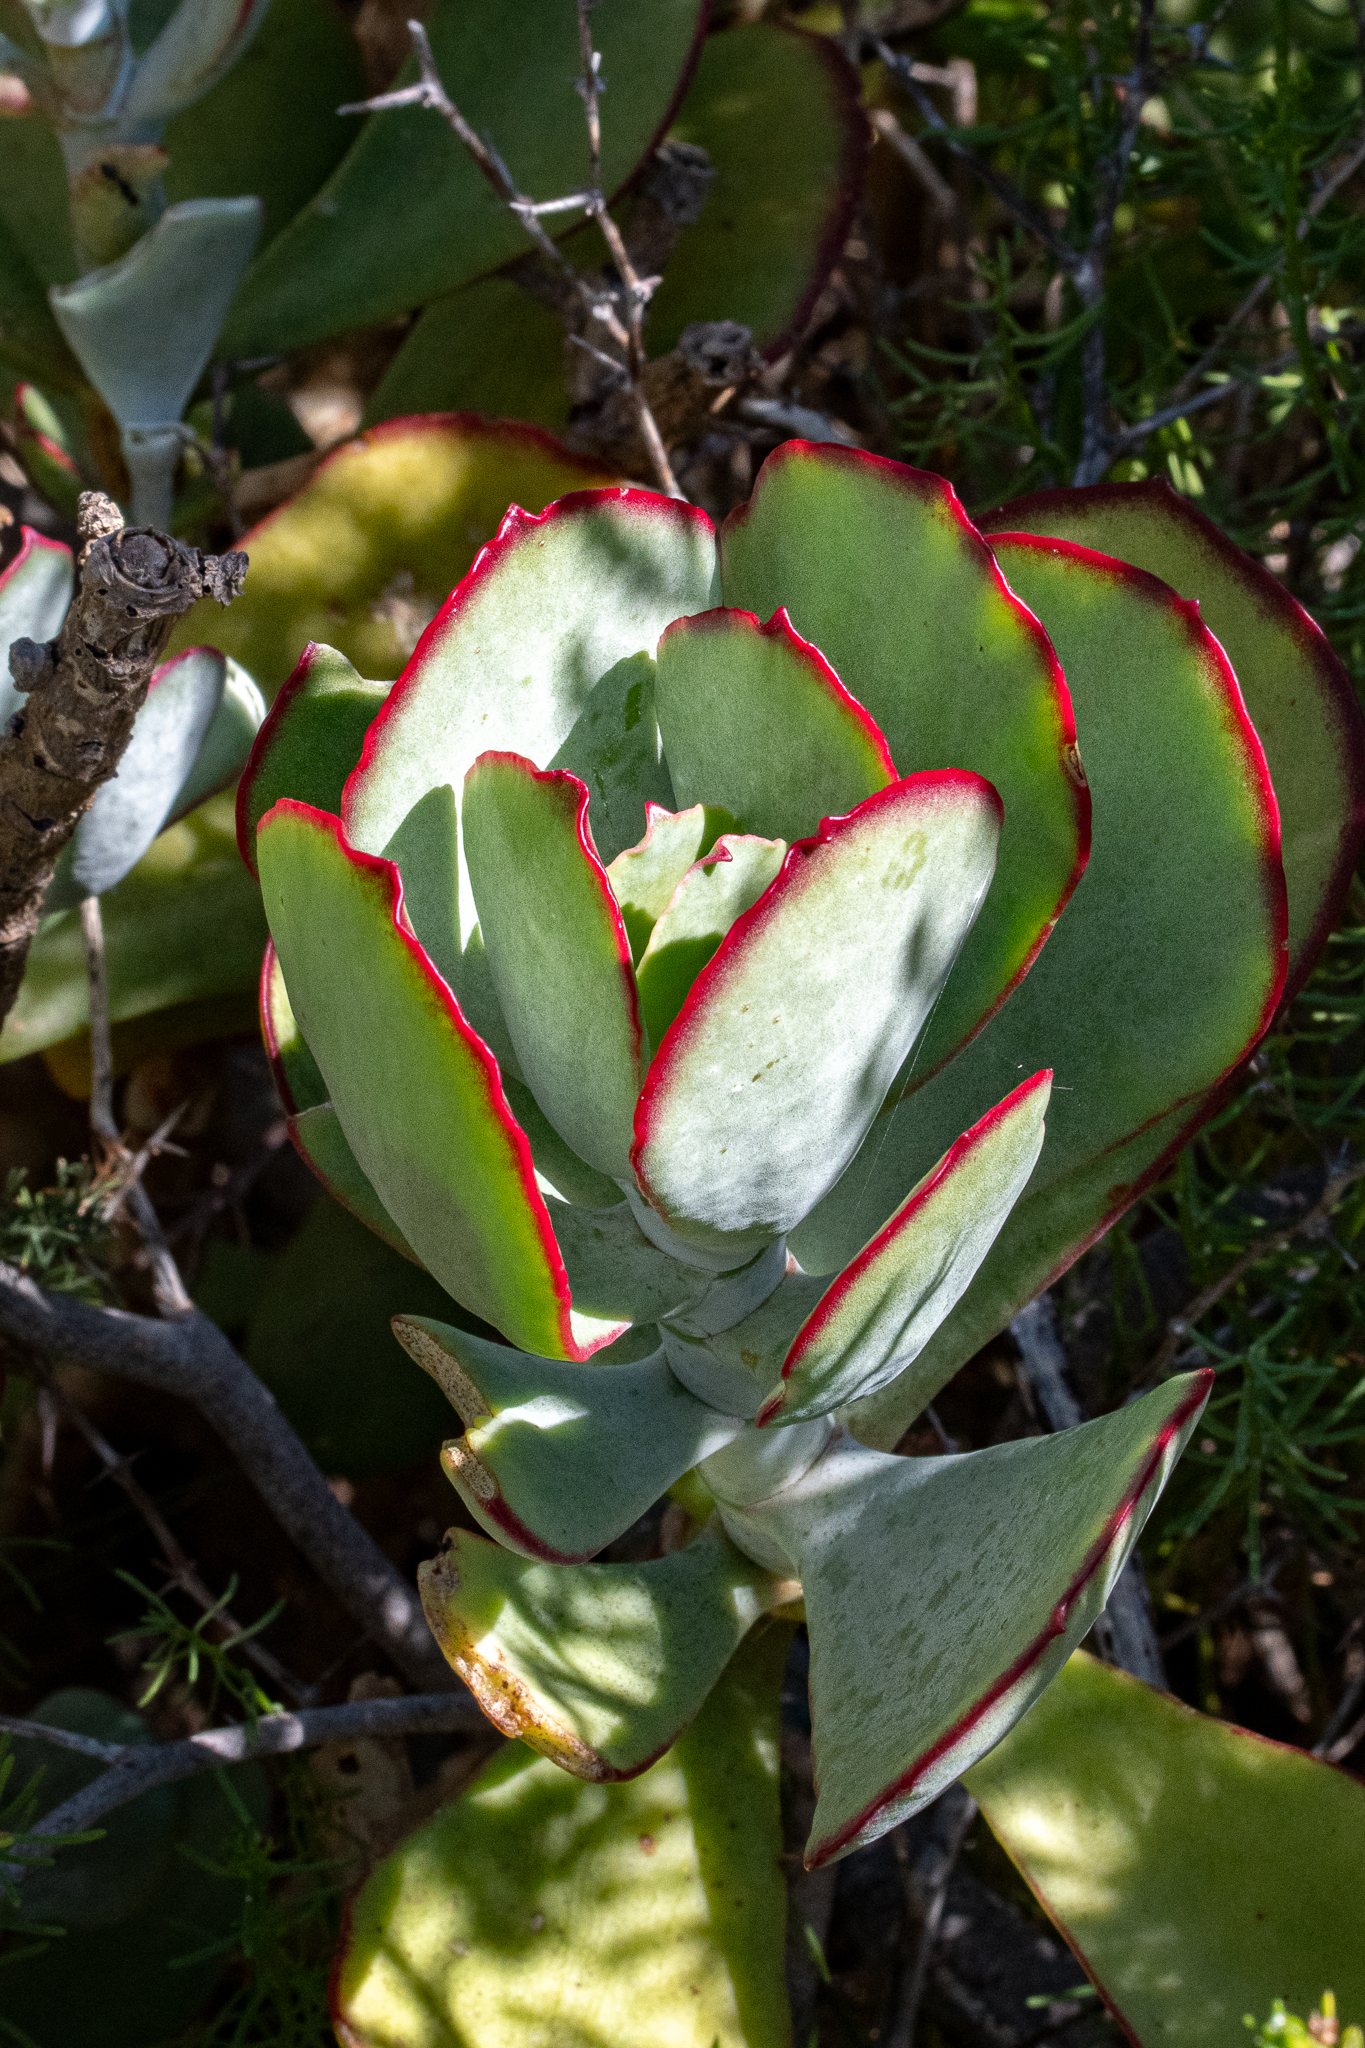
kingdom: Plantae
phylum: Tracheophyta
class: Magnoliopsida
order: Saxifragales
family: Crassulaceae
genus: Cotyledon
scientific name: Cotyledon orbiculata
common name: Pig's ear
